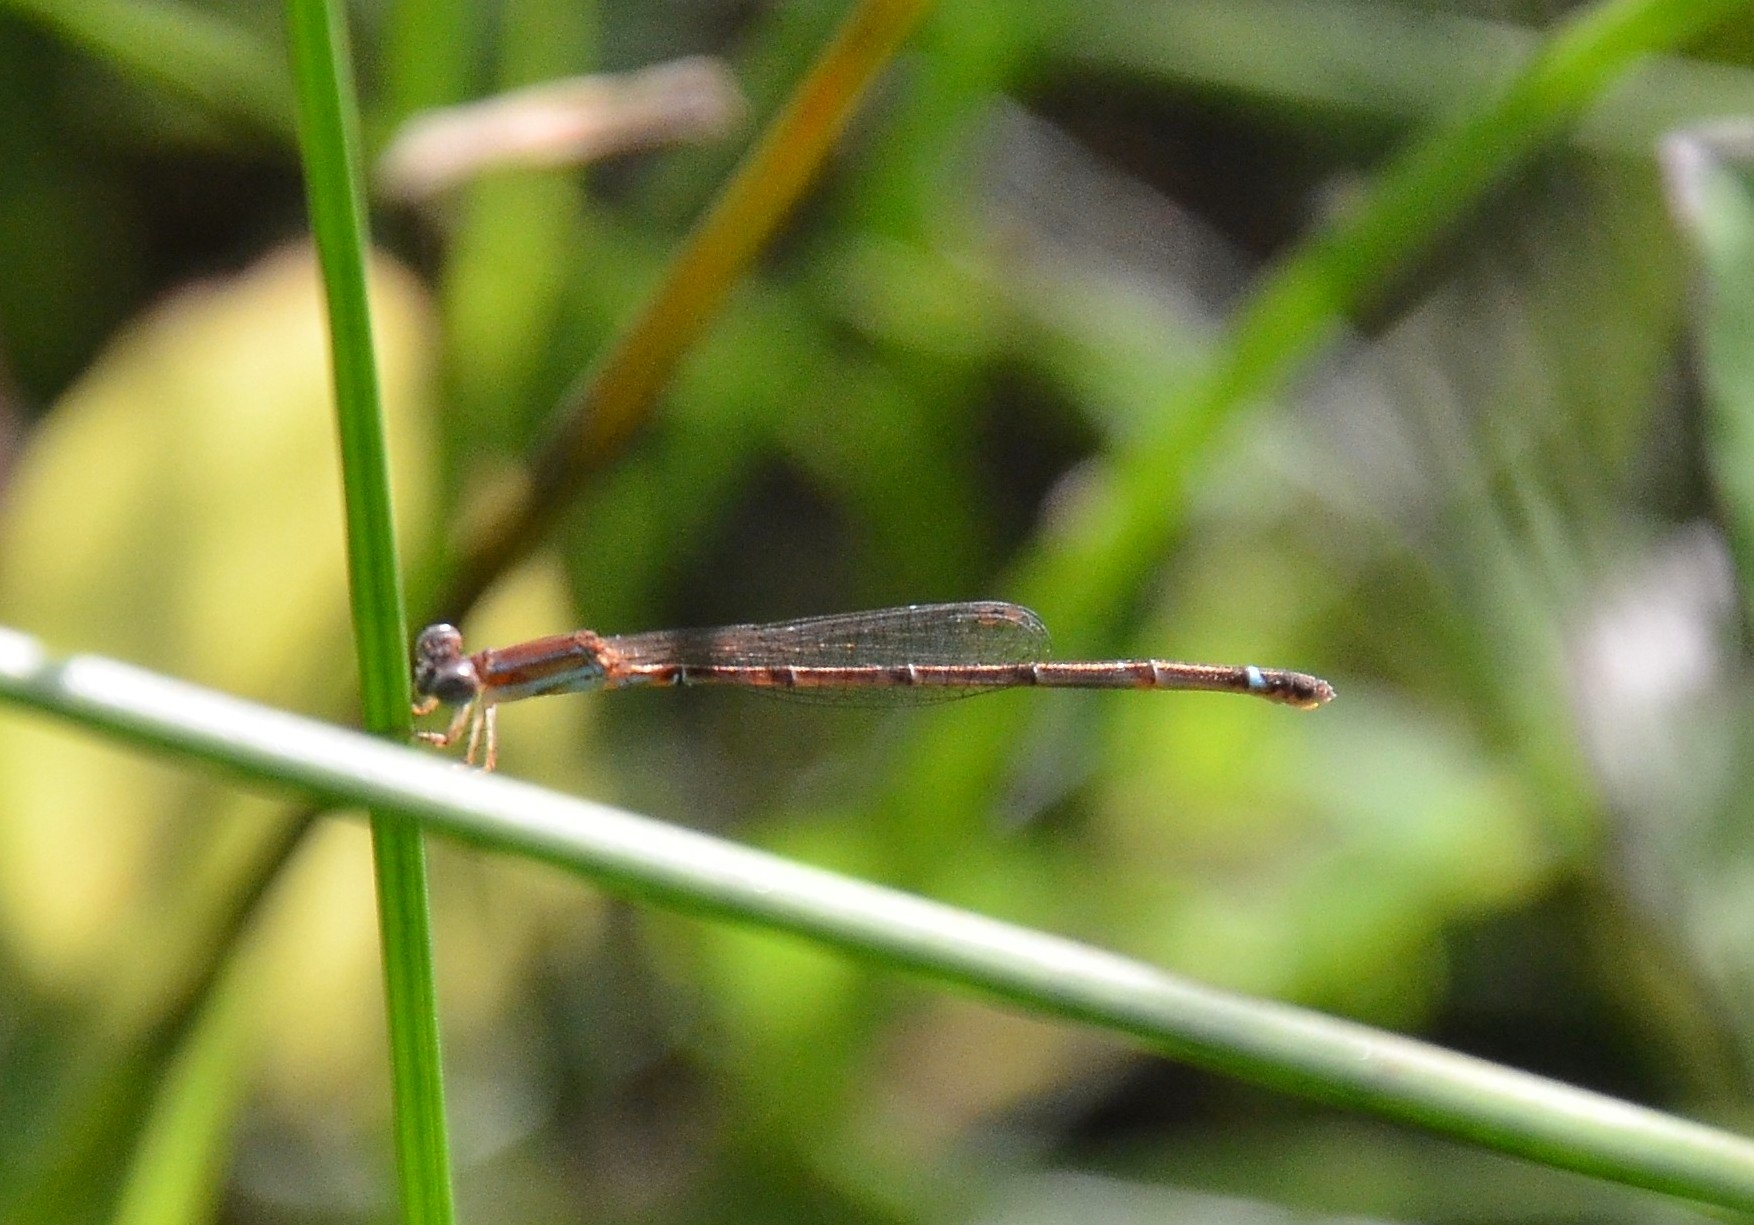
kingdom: Animalia
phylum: Arthropoda
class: Insecta
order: Odonata
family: Coenagrionidae
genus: Mortonagrion
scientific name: Mortonagrion varralli
